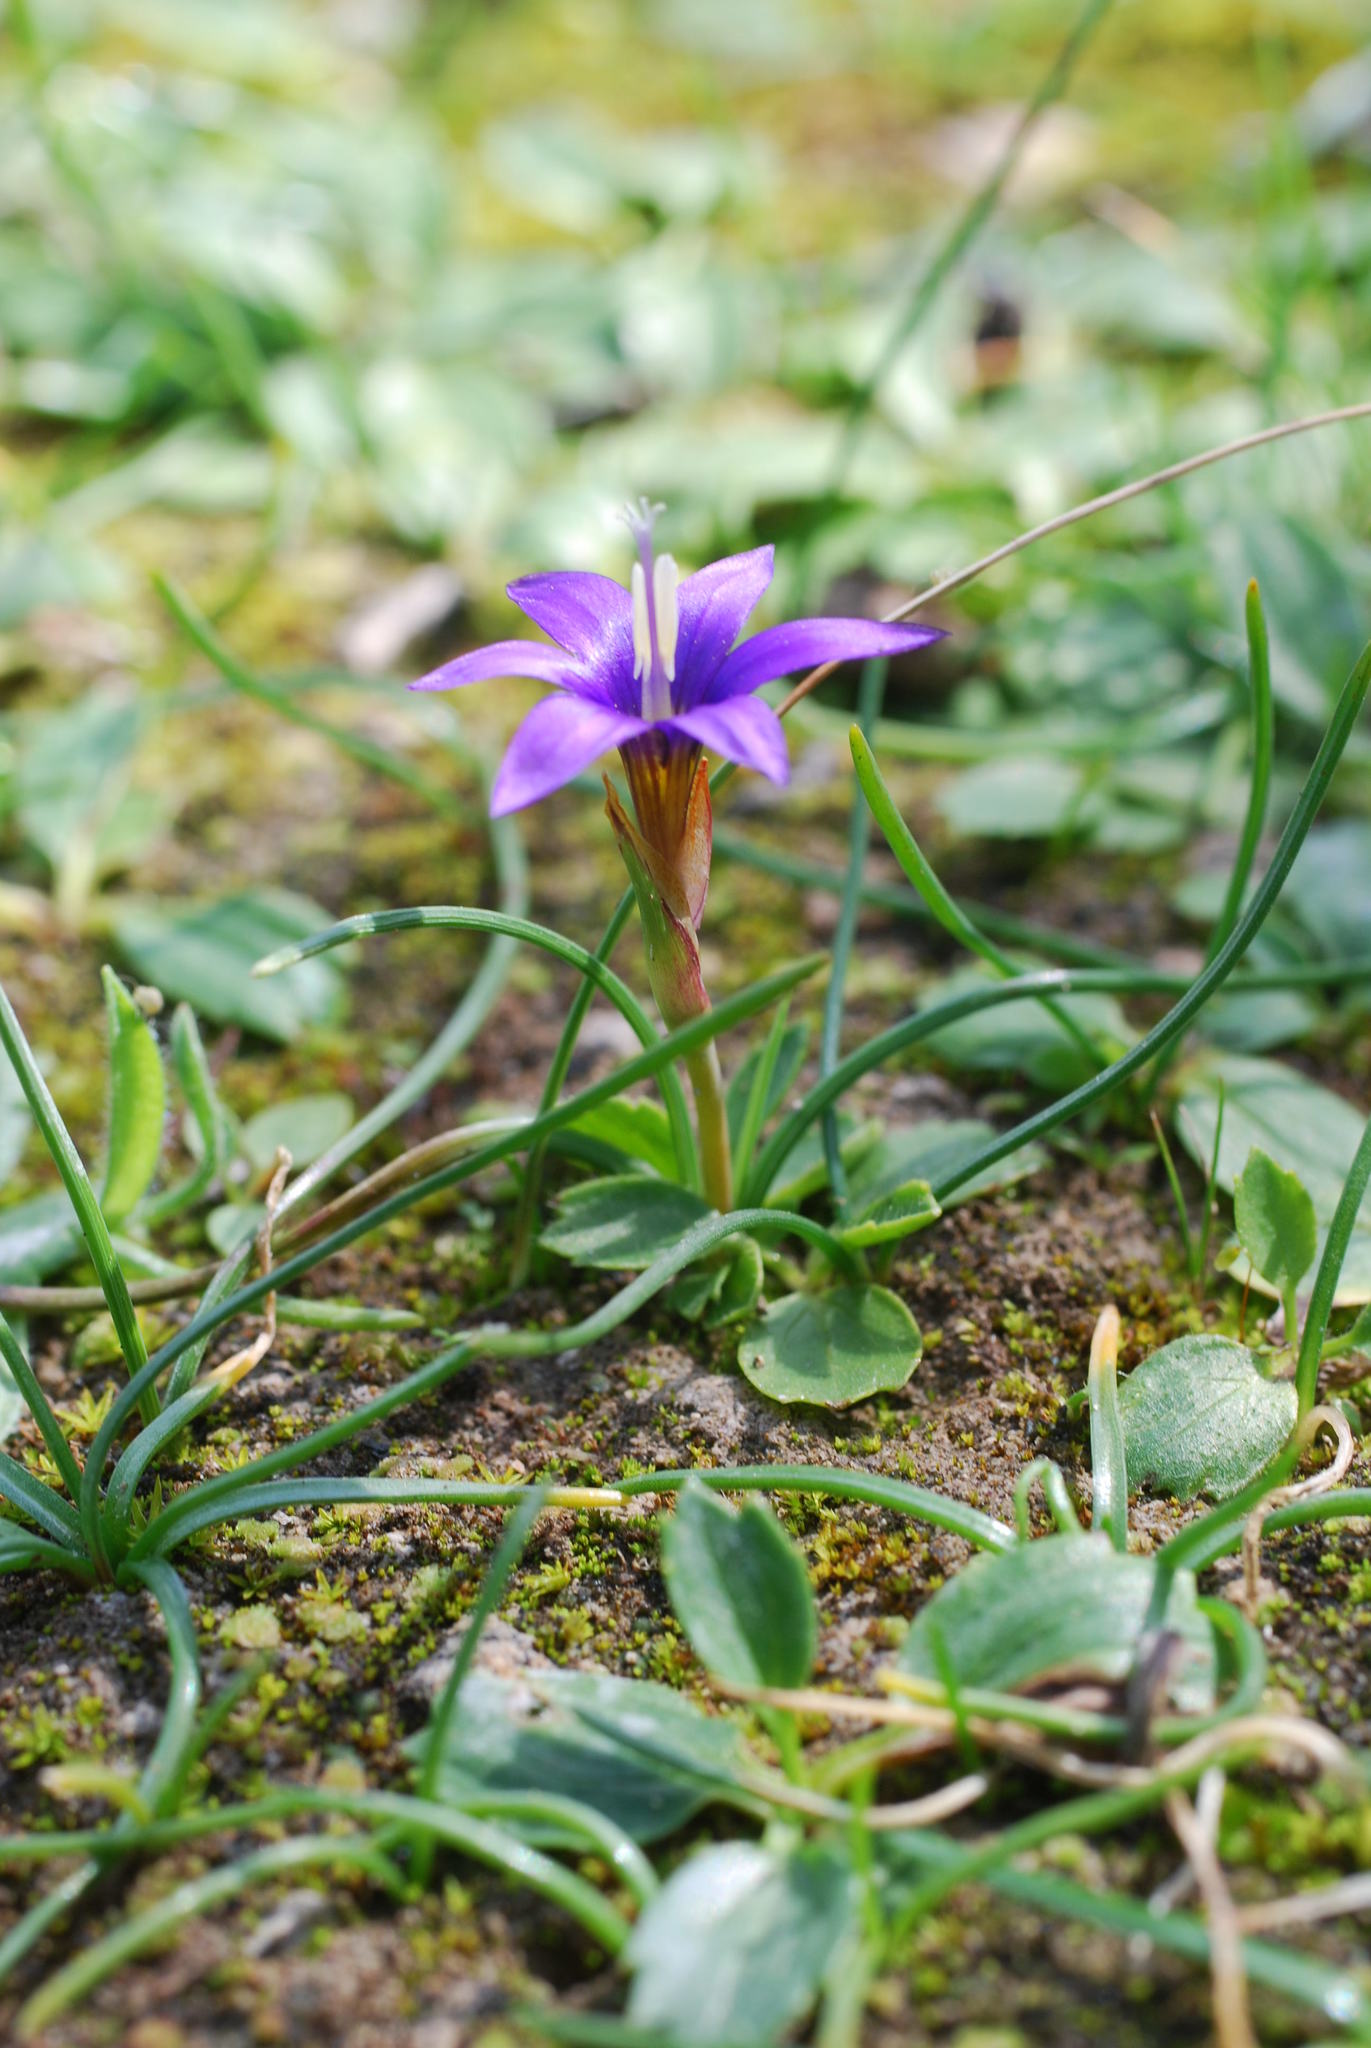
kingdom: Plantae
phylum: Tracheophyta
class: Liliopsida
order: Asparagales
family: Iridaceae
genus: Romulea
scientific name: Romulea tempskyana
